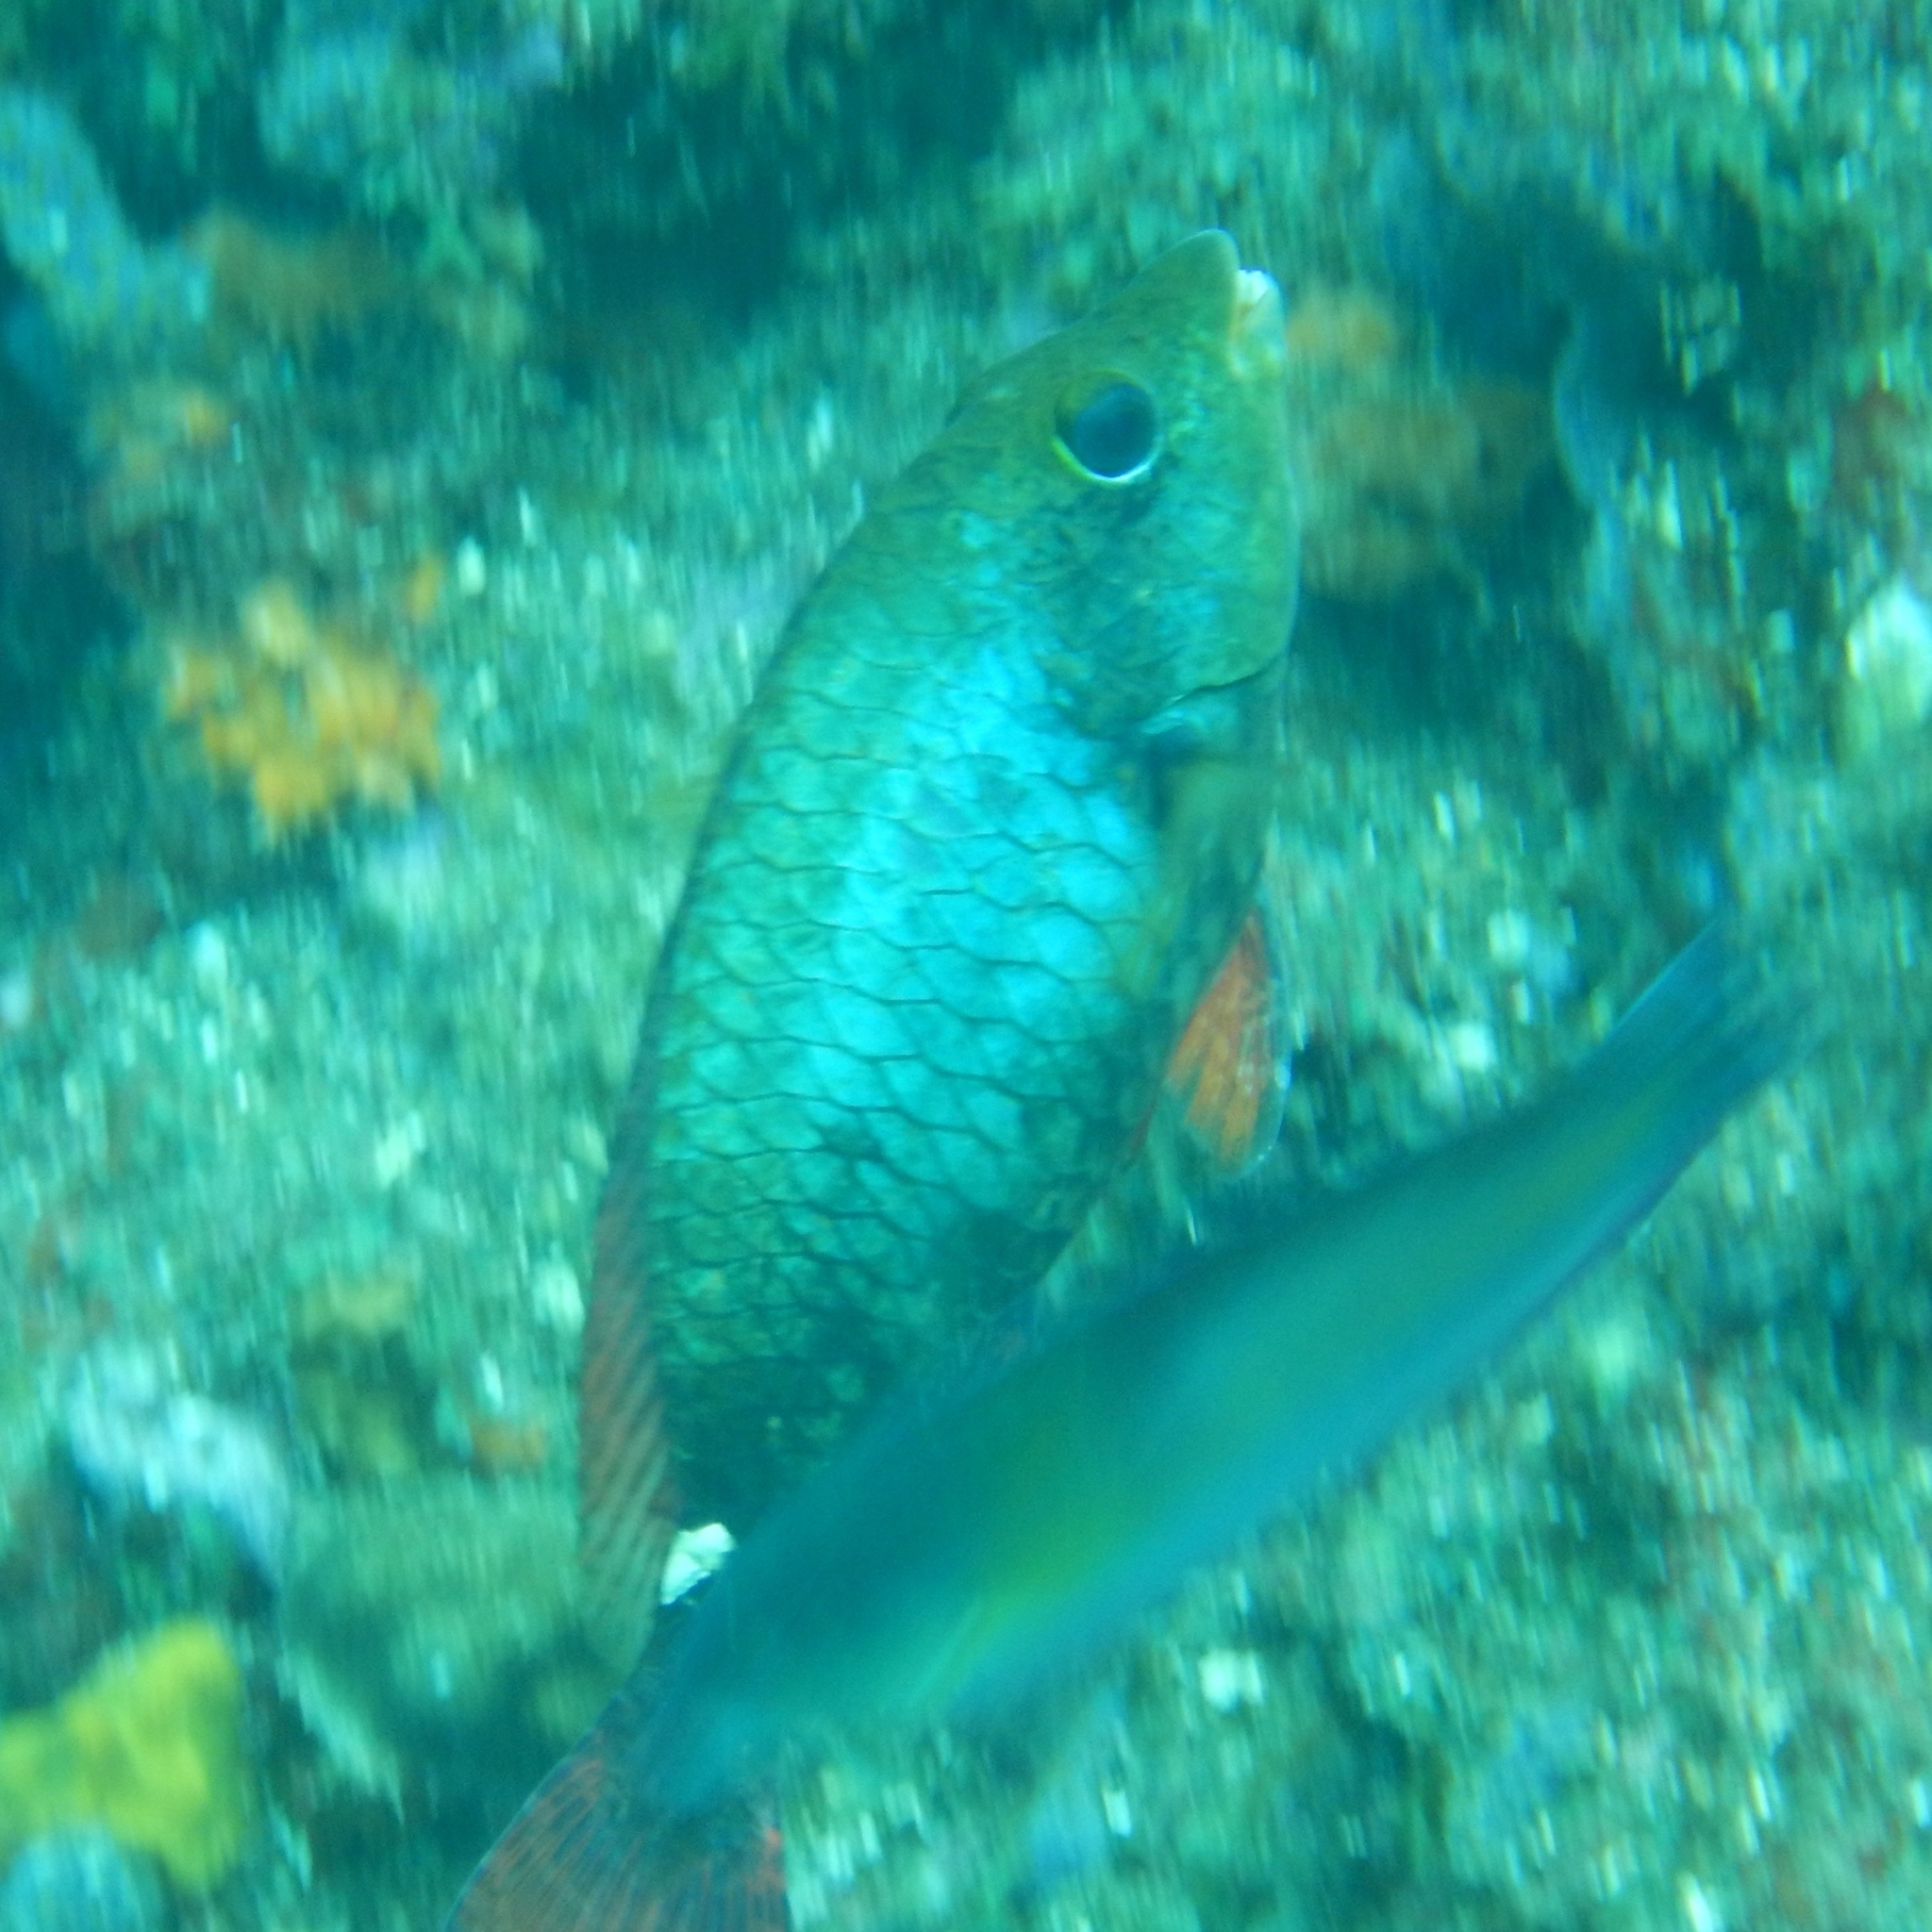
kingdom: Animalia
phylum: Chordata
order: Perciformes
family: Scaridae
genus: Sparisoma
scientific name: Sparisoma aurofrenatum
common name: Redband parrotfish
